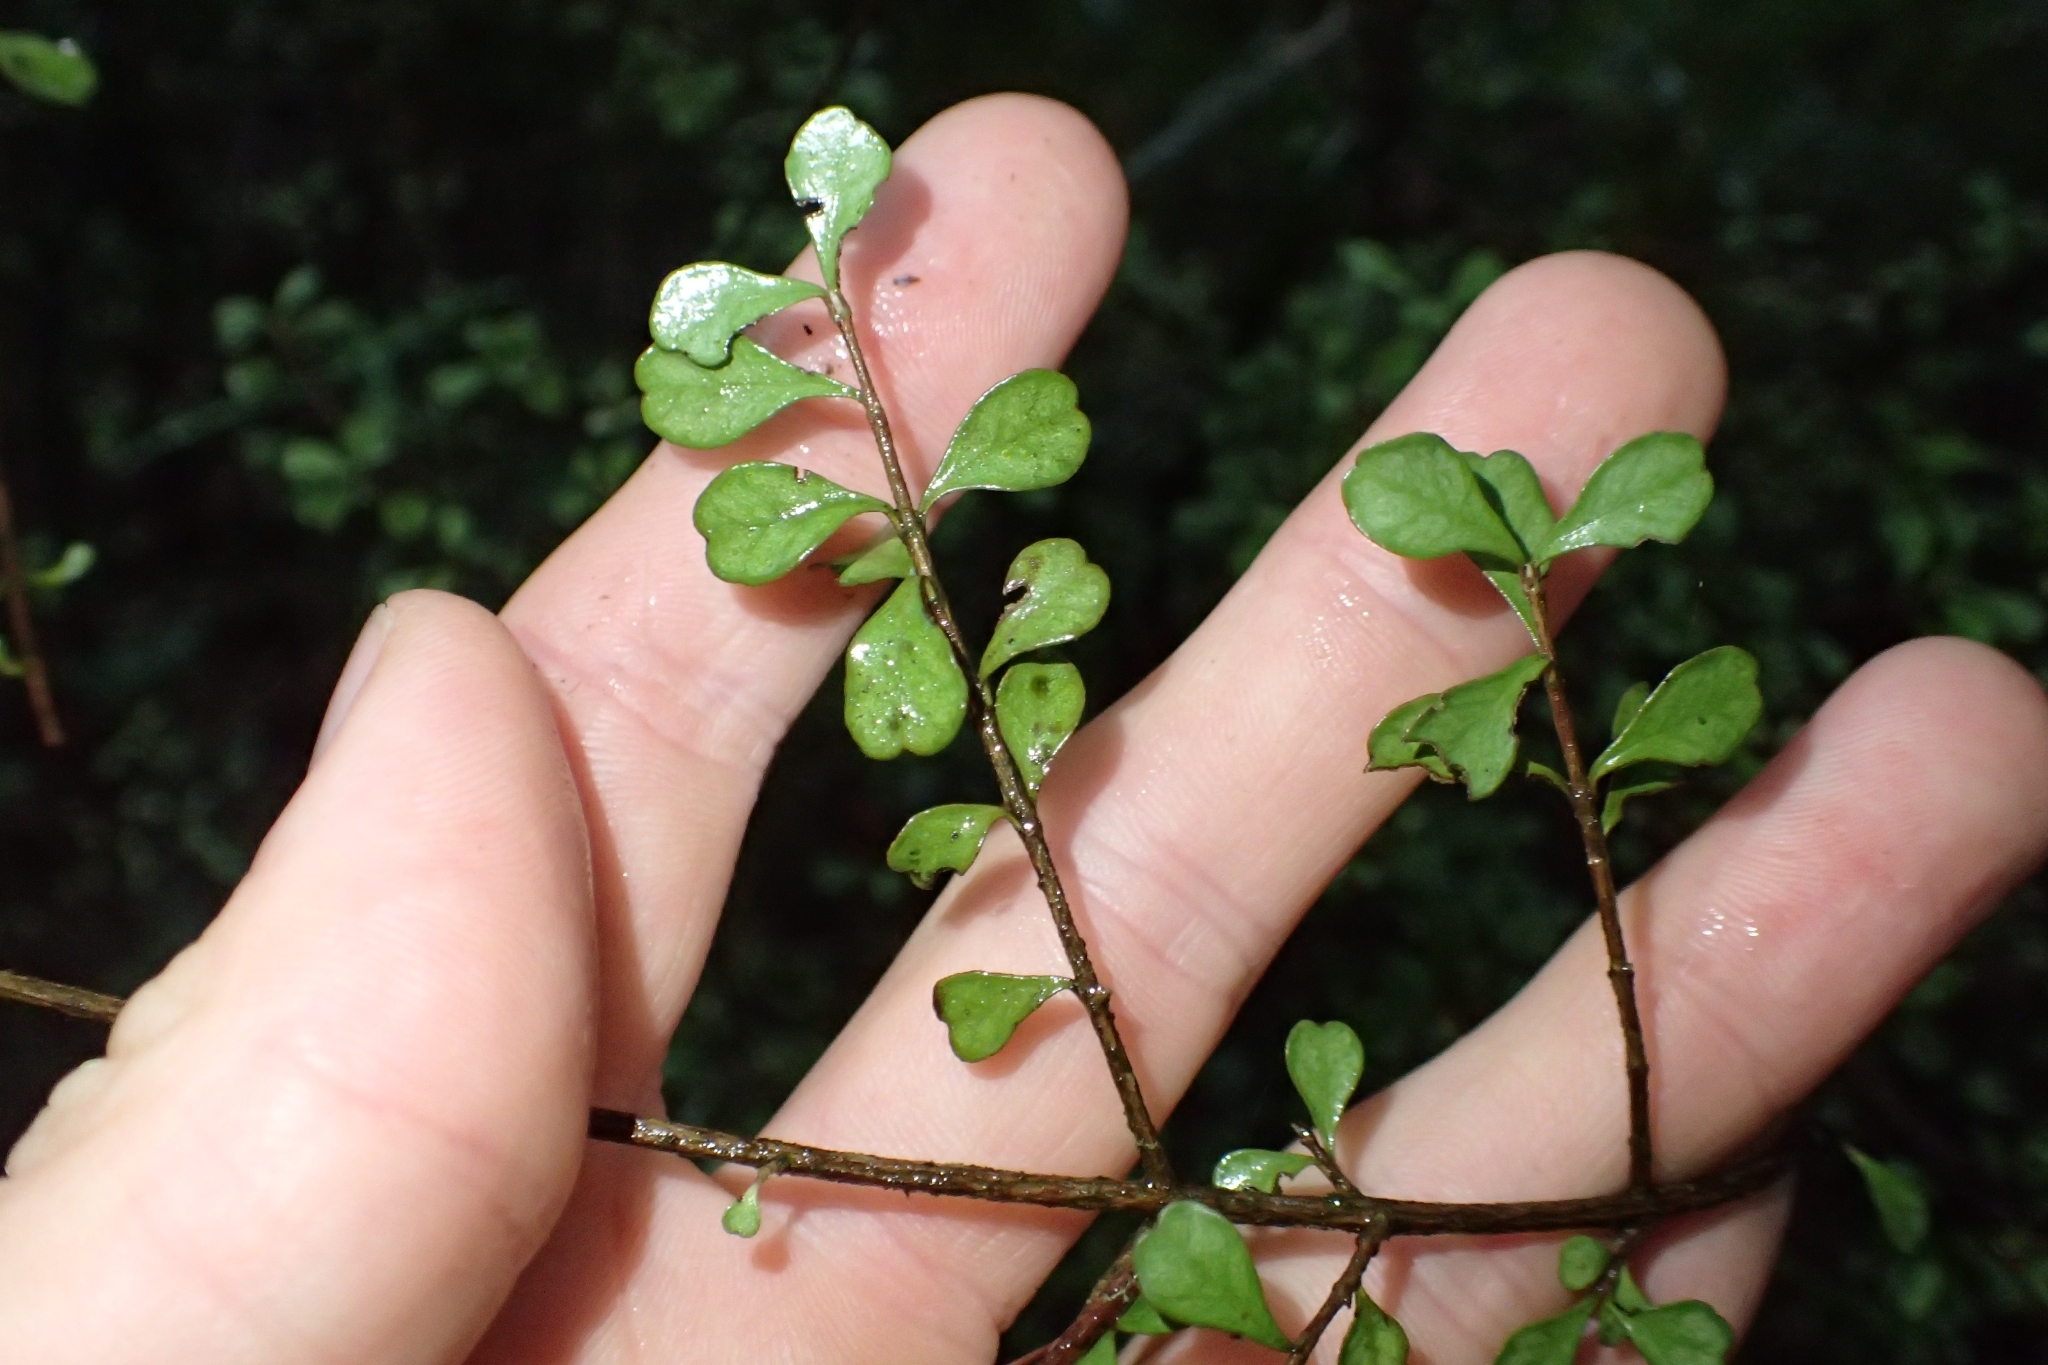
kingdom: Plantae
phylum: Tracheophyta
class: Magnoliopsida
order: Myrtales
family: Myrtaceae
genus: Lophomyrtus
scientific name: Lophomyrtus obcordata
